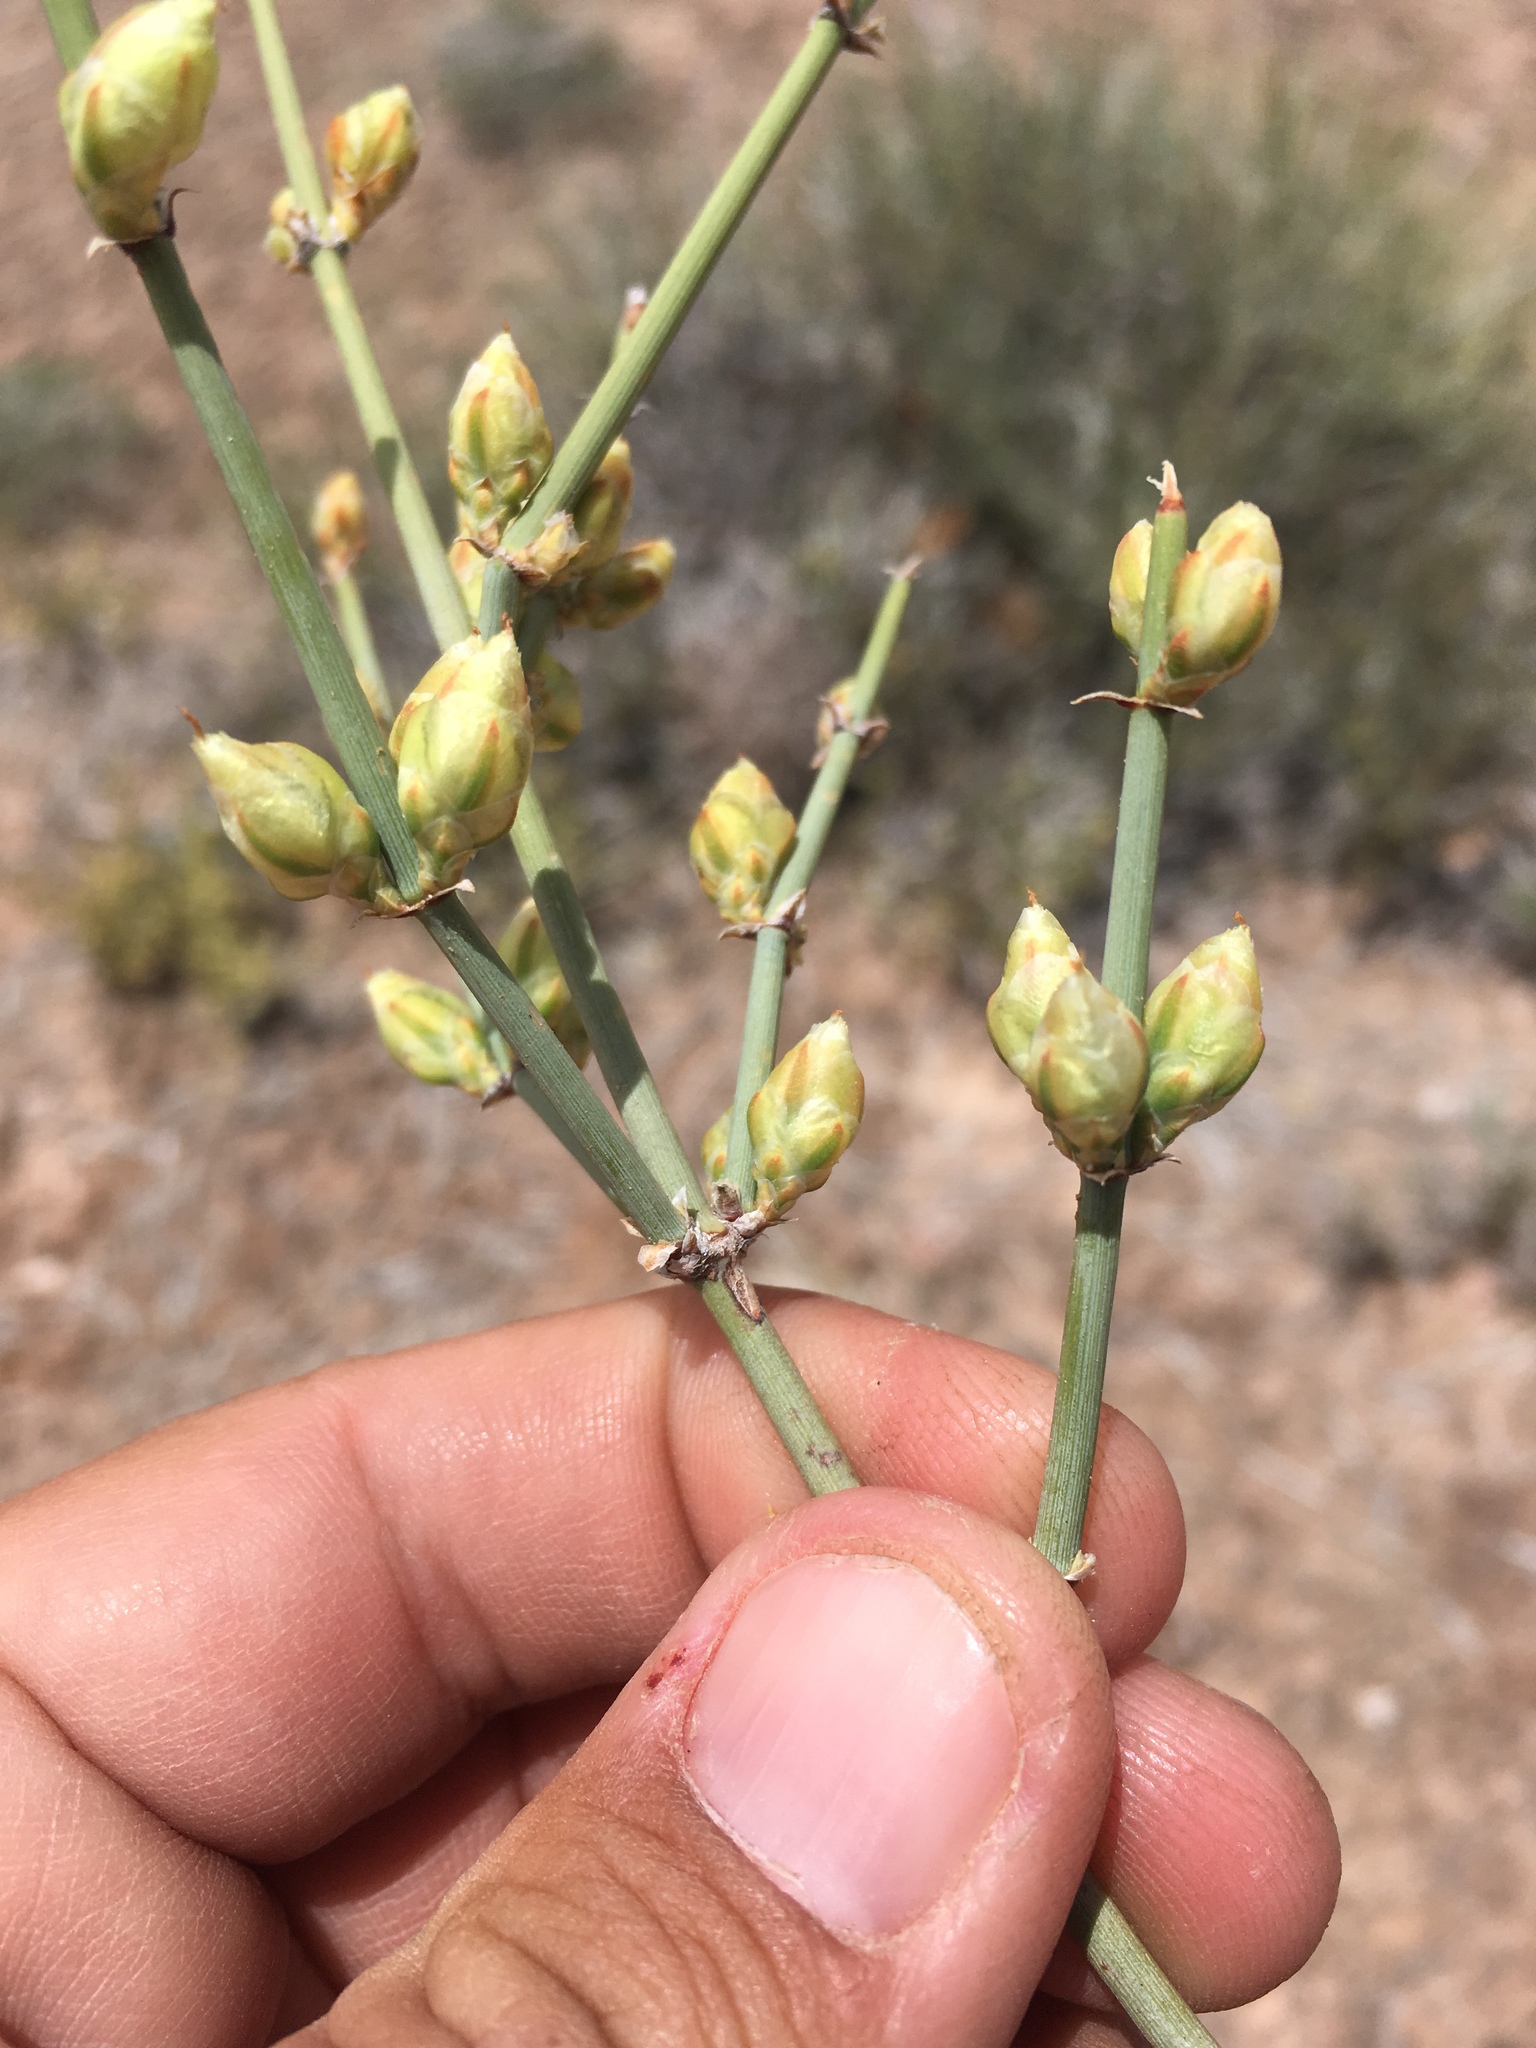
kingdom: Plantae
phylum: Tracheophyta
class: Gnetopsida
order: Ephedrales
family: Ephedraceae
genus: Ephedra
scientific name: Ephedra torreyana
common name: Torrey ephedra
